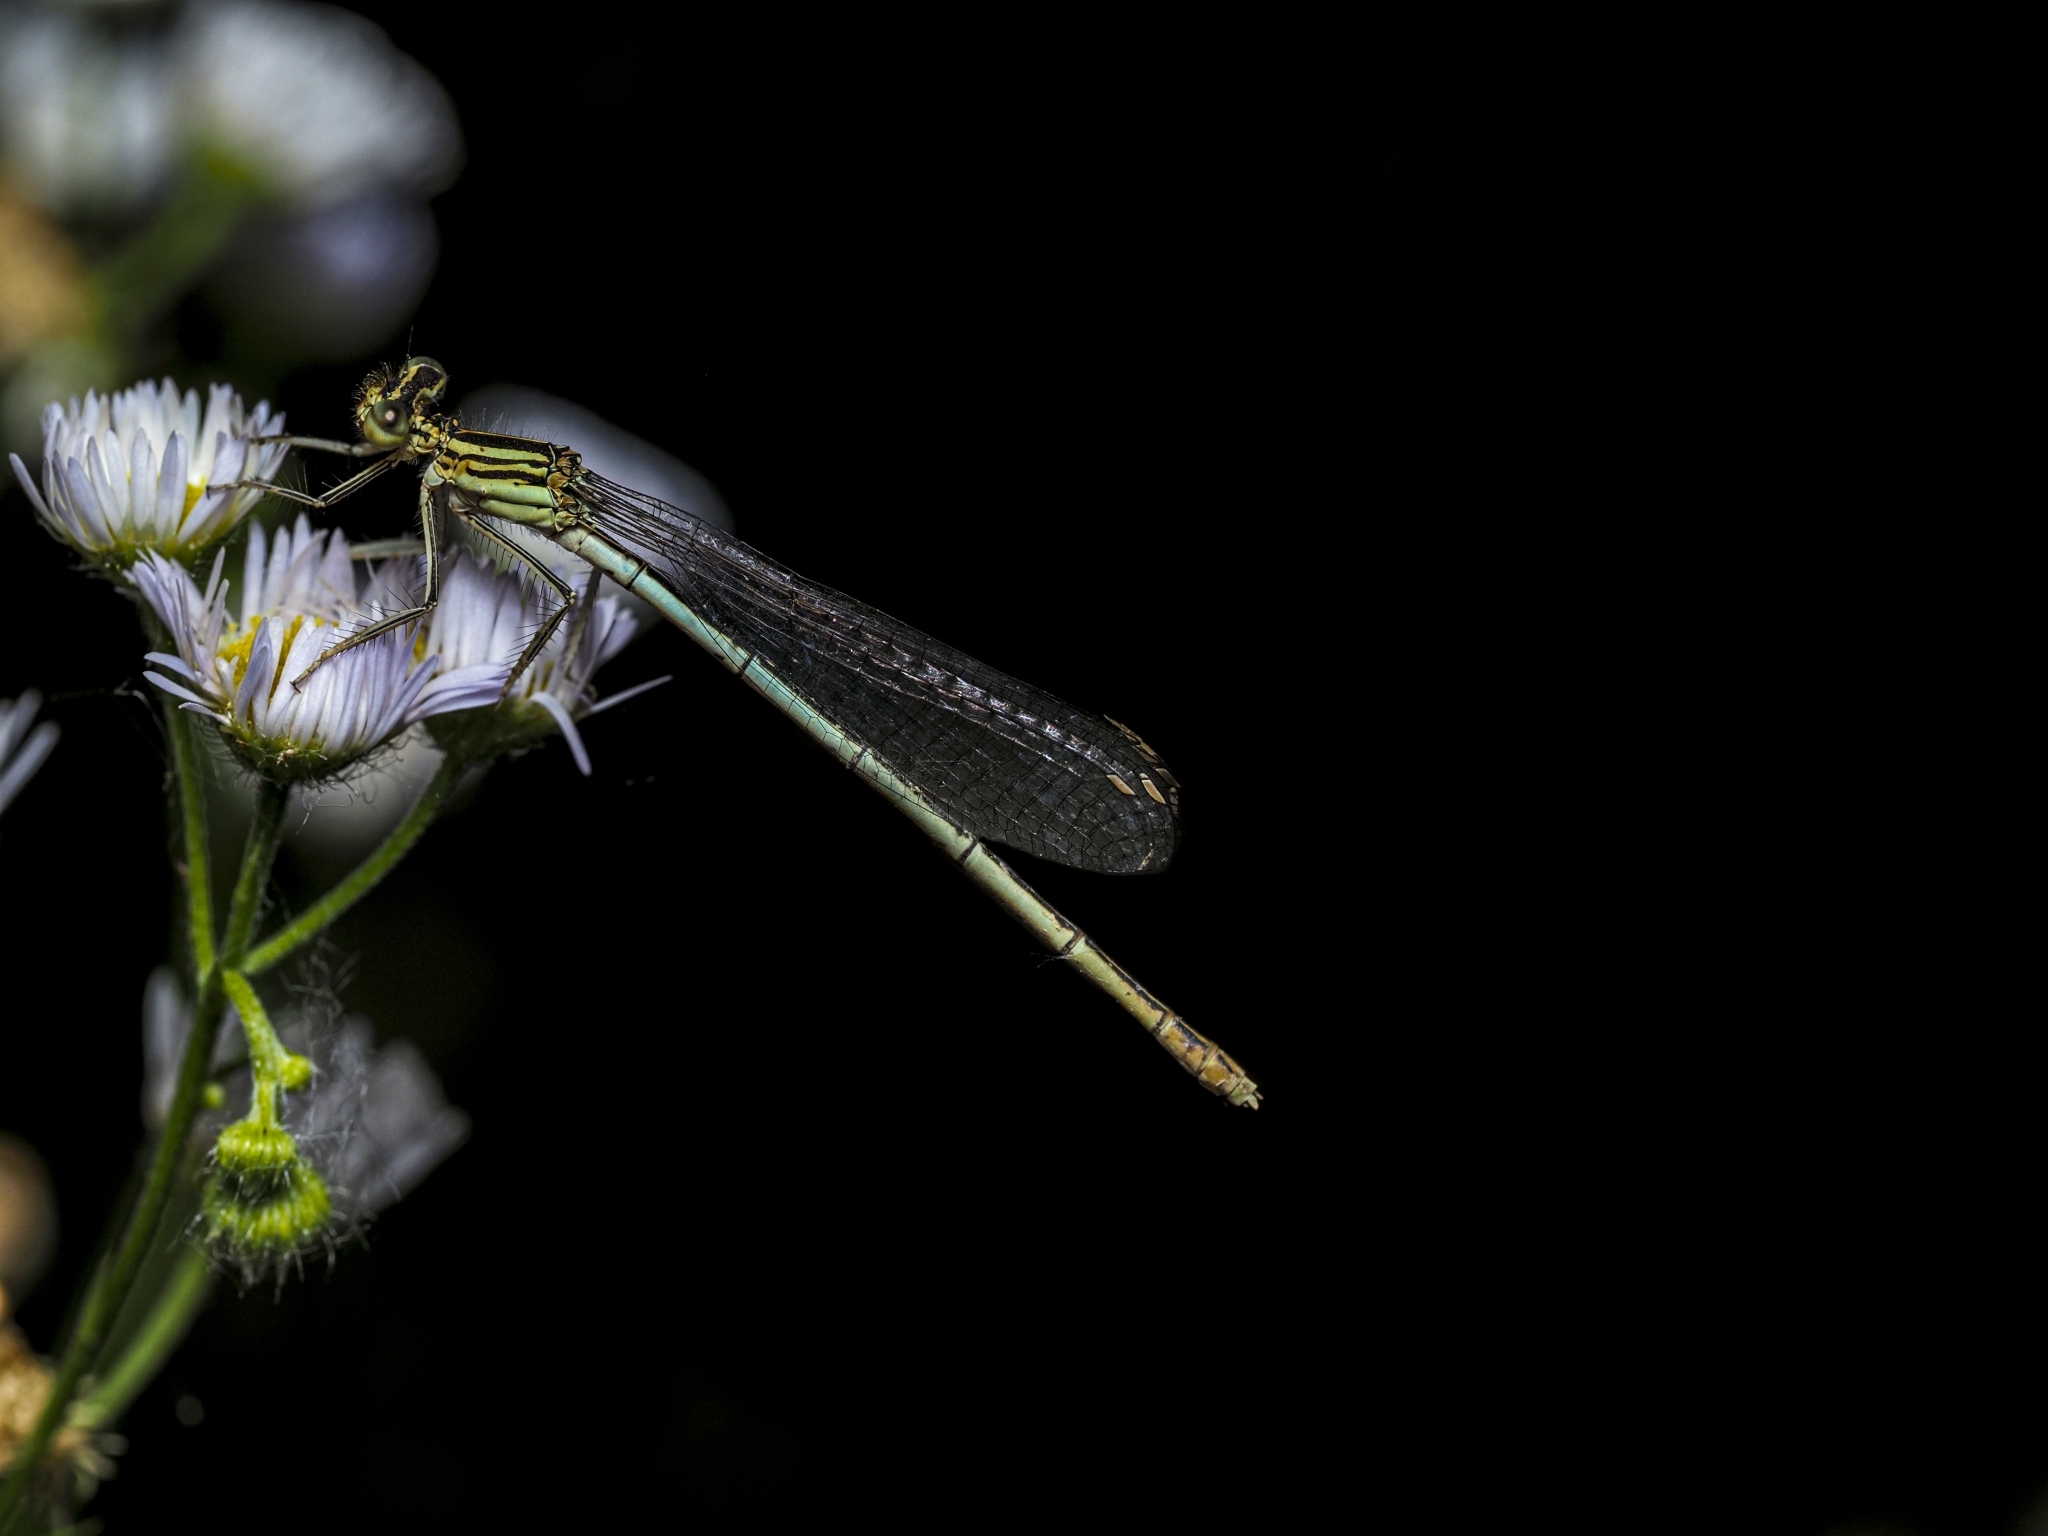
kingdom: Animalia
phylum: Arthropoda
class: Insecta
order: Odonata
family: Platycnemididae
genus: Platycnemis
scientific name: Platycnemis pennipes
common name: White-legged damselfly
